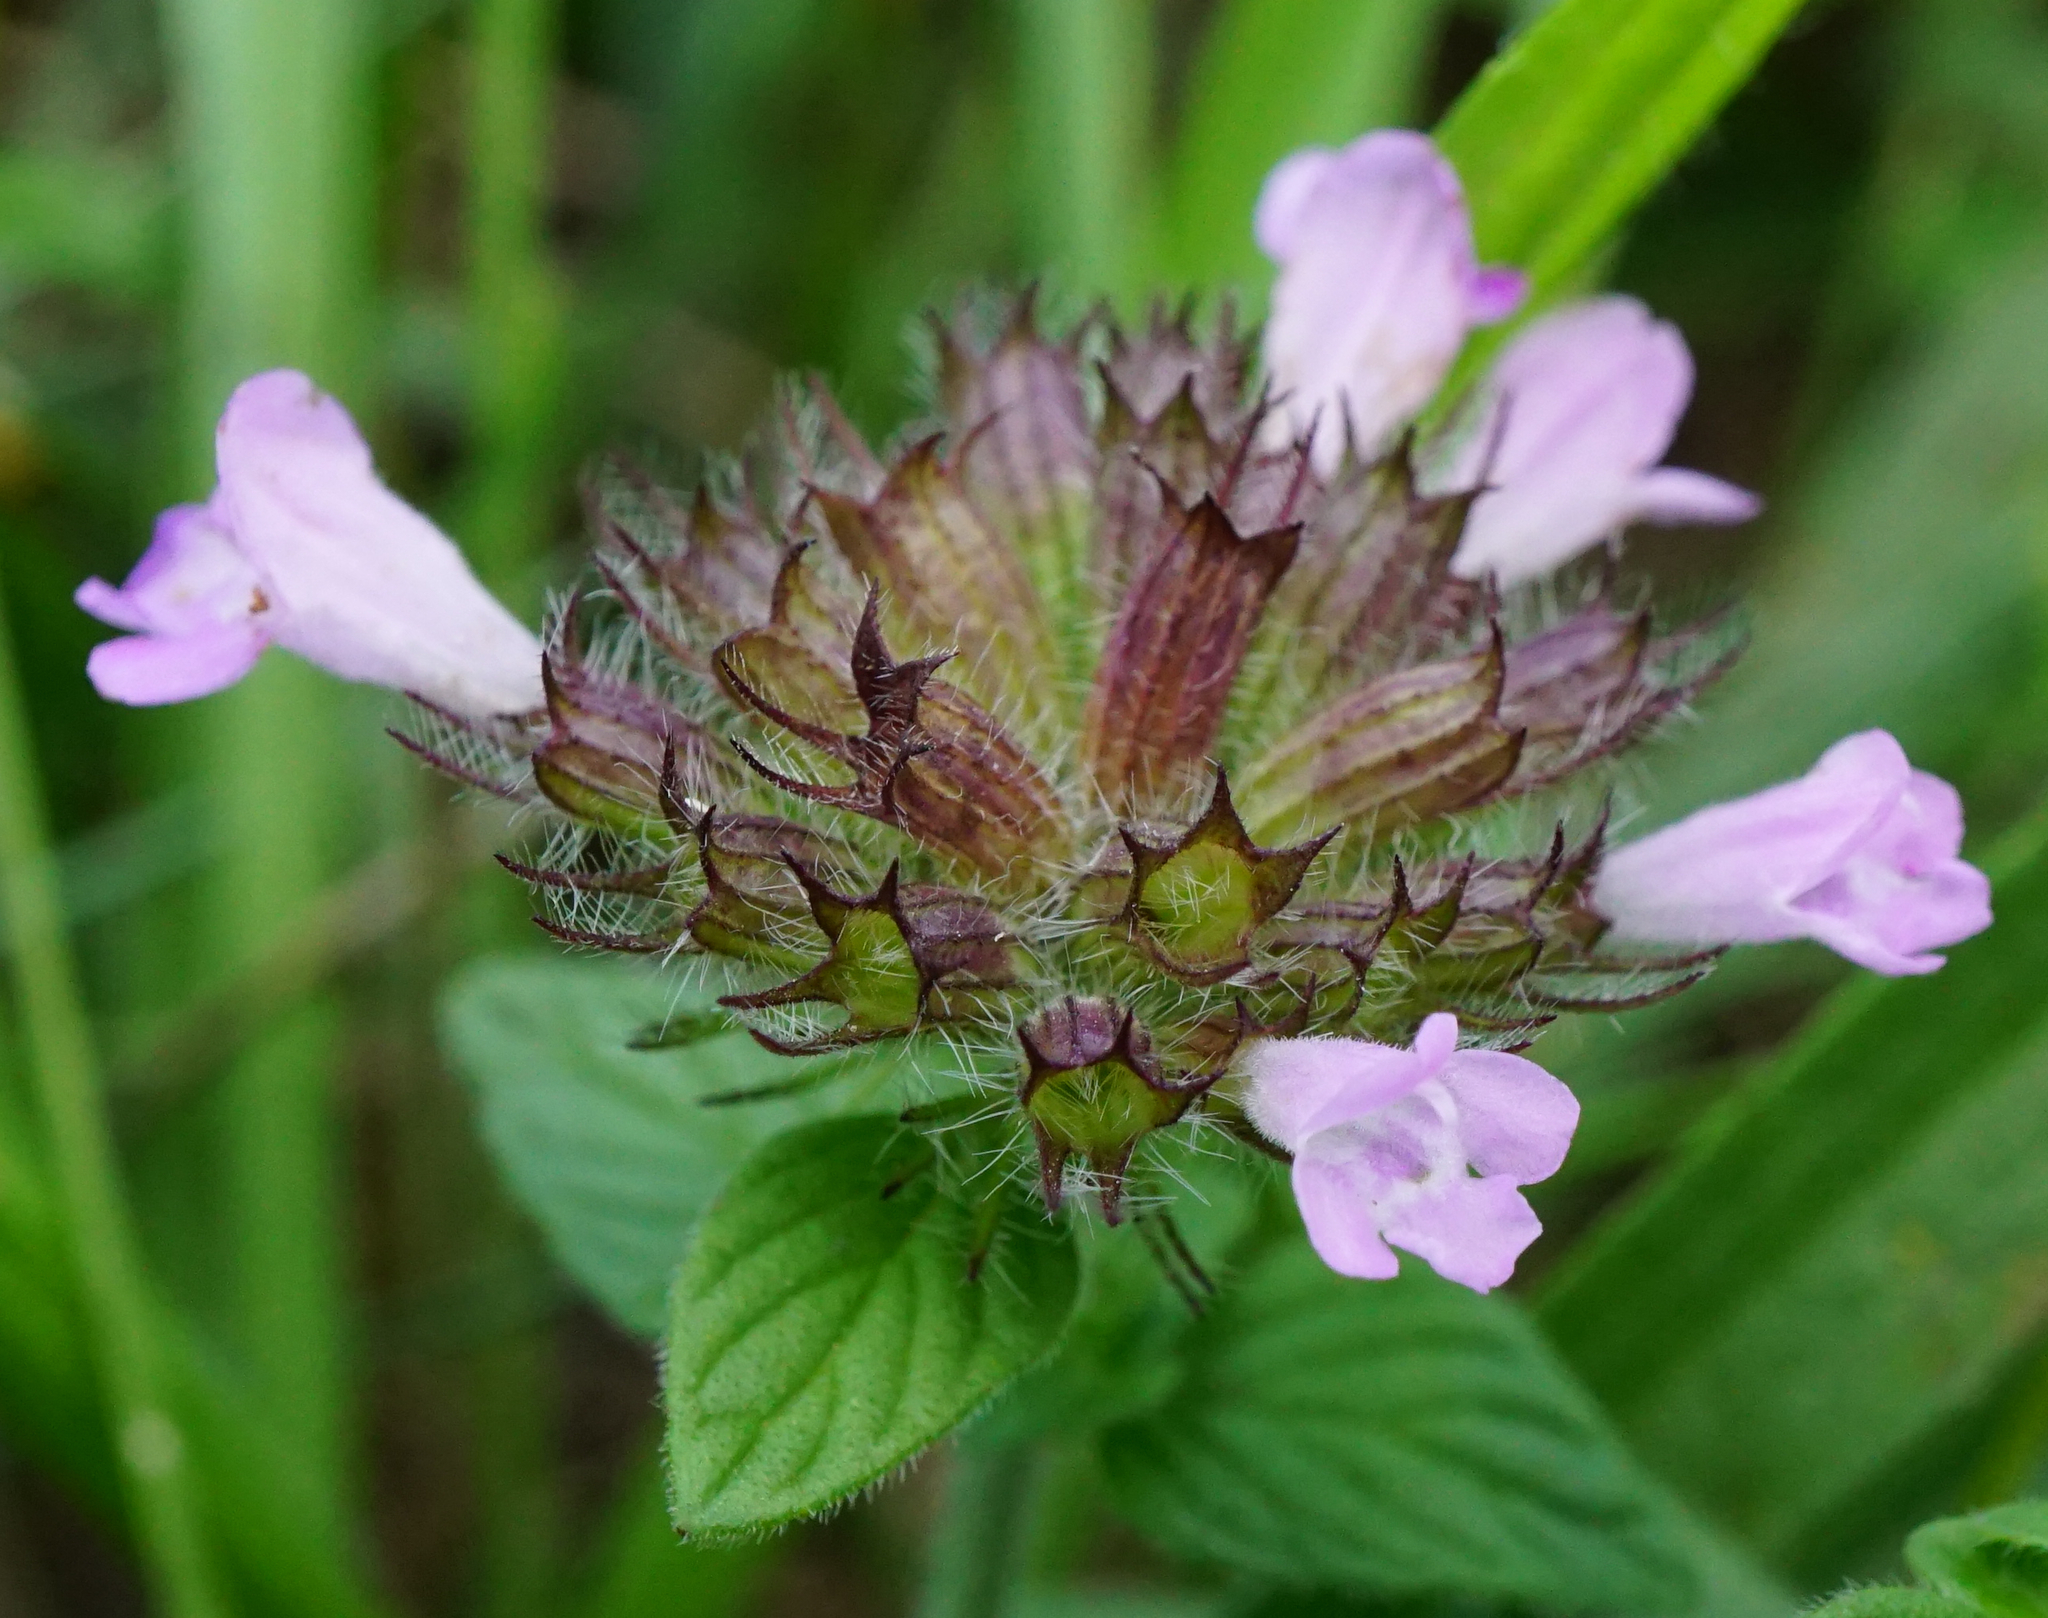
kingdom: Plantae
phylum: Tracheophyta
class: Magnoliopsida
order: Lamiales
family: Lamiaceae
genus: Clinopodium
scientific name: Clinopodium vulgare
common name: Wild basil
